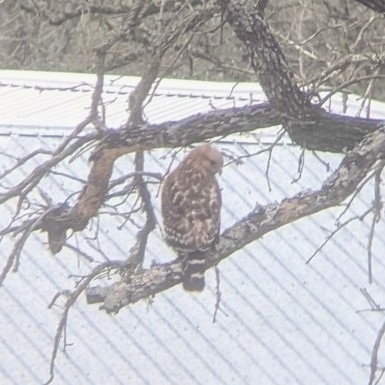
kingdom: Animalia
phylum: Chordata
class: Aves
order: Accipitriformes
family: Accipitridae
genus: Buteo
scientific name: Buteo lineatus
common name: Red-shouldered hawk
